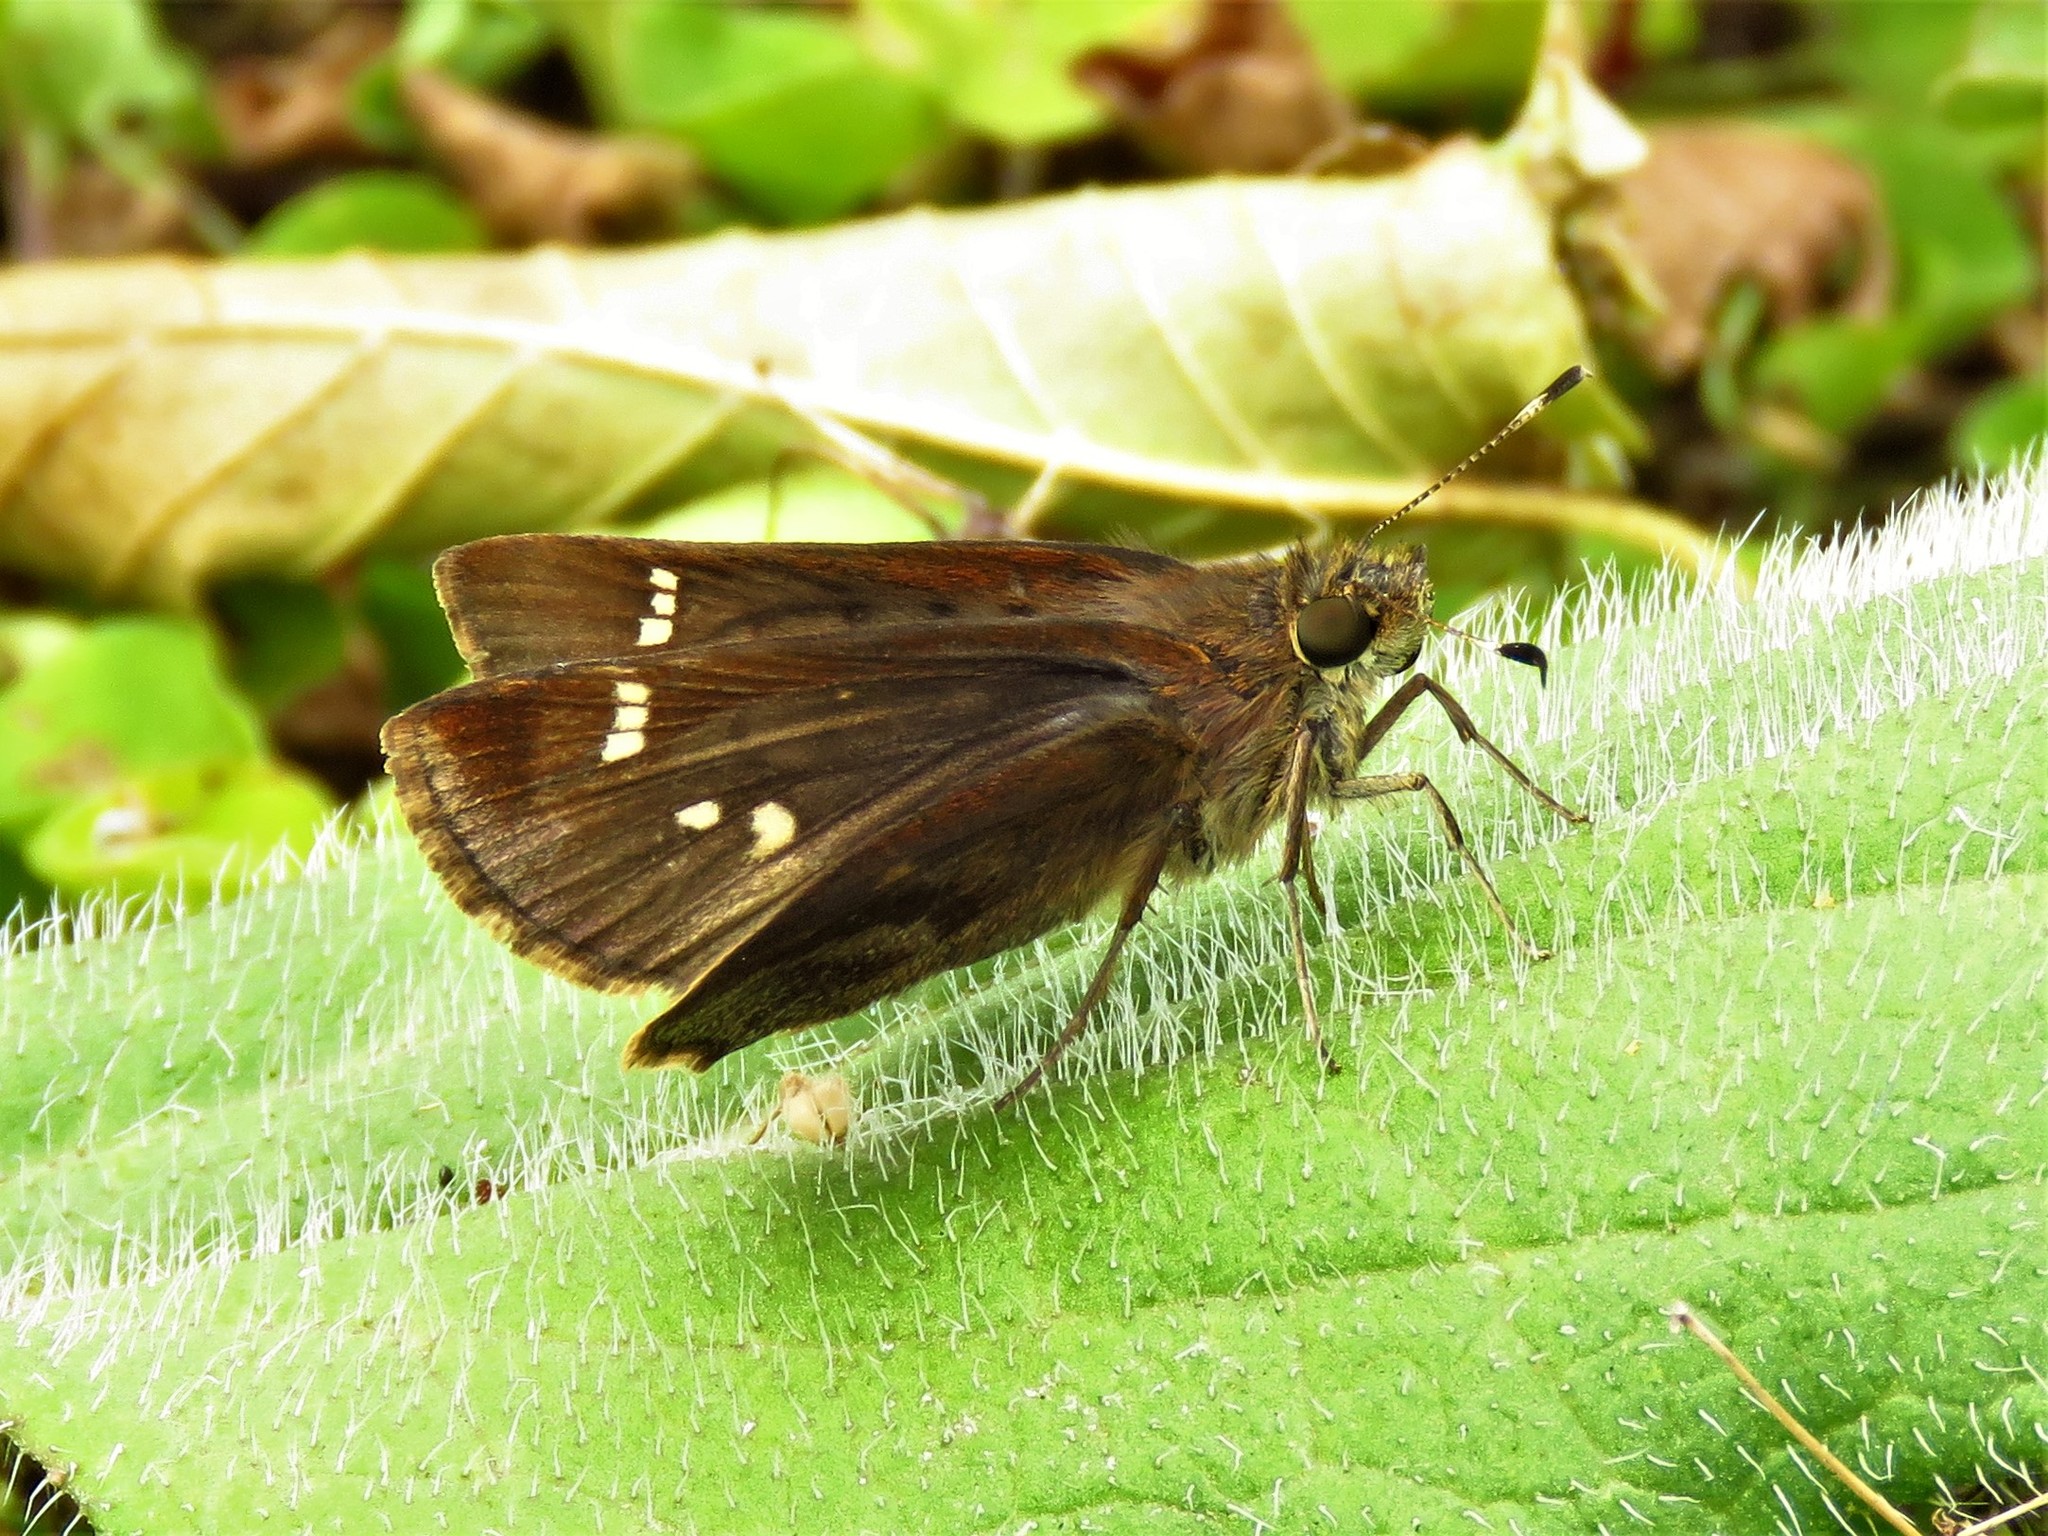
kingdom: Animalia
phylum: Arthropoda
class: Insecta
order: Lepidoptera
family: Hesperiidae
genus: Lerema
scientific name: Lerema accius
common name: Clouded skipper
